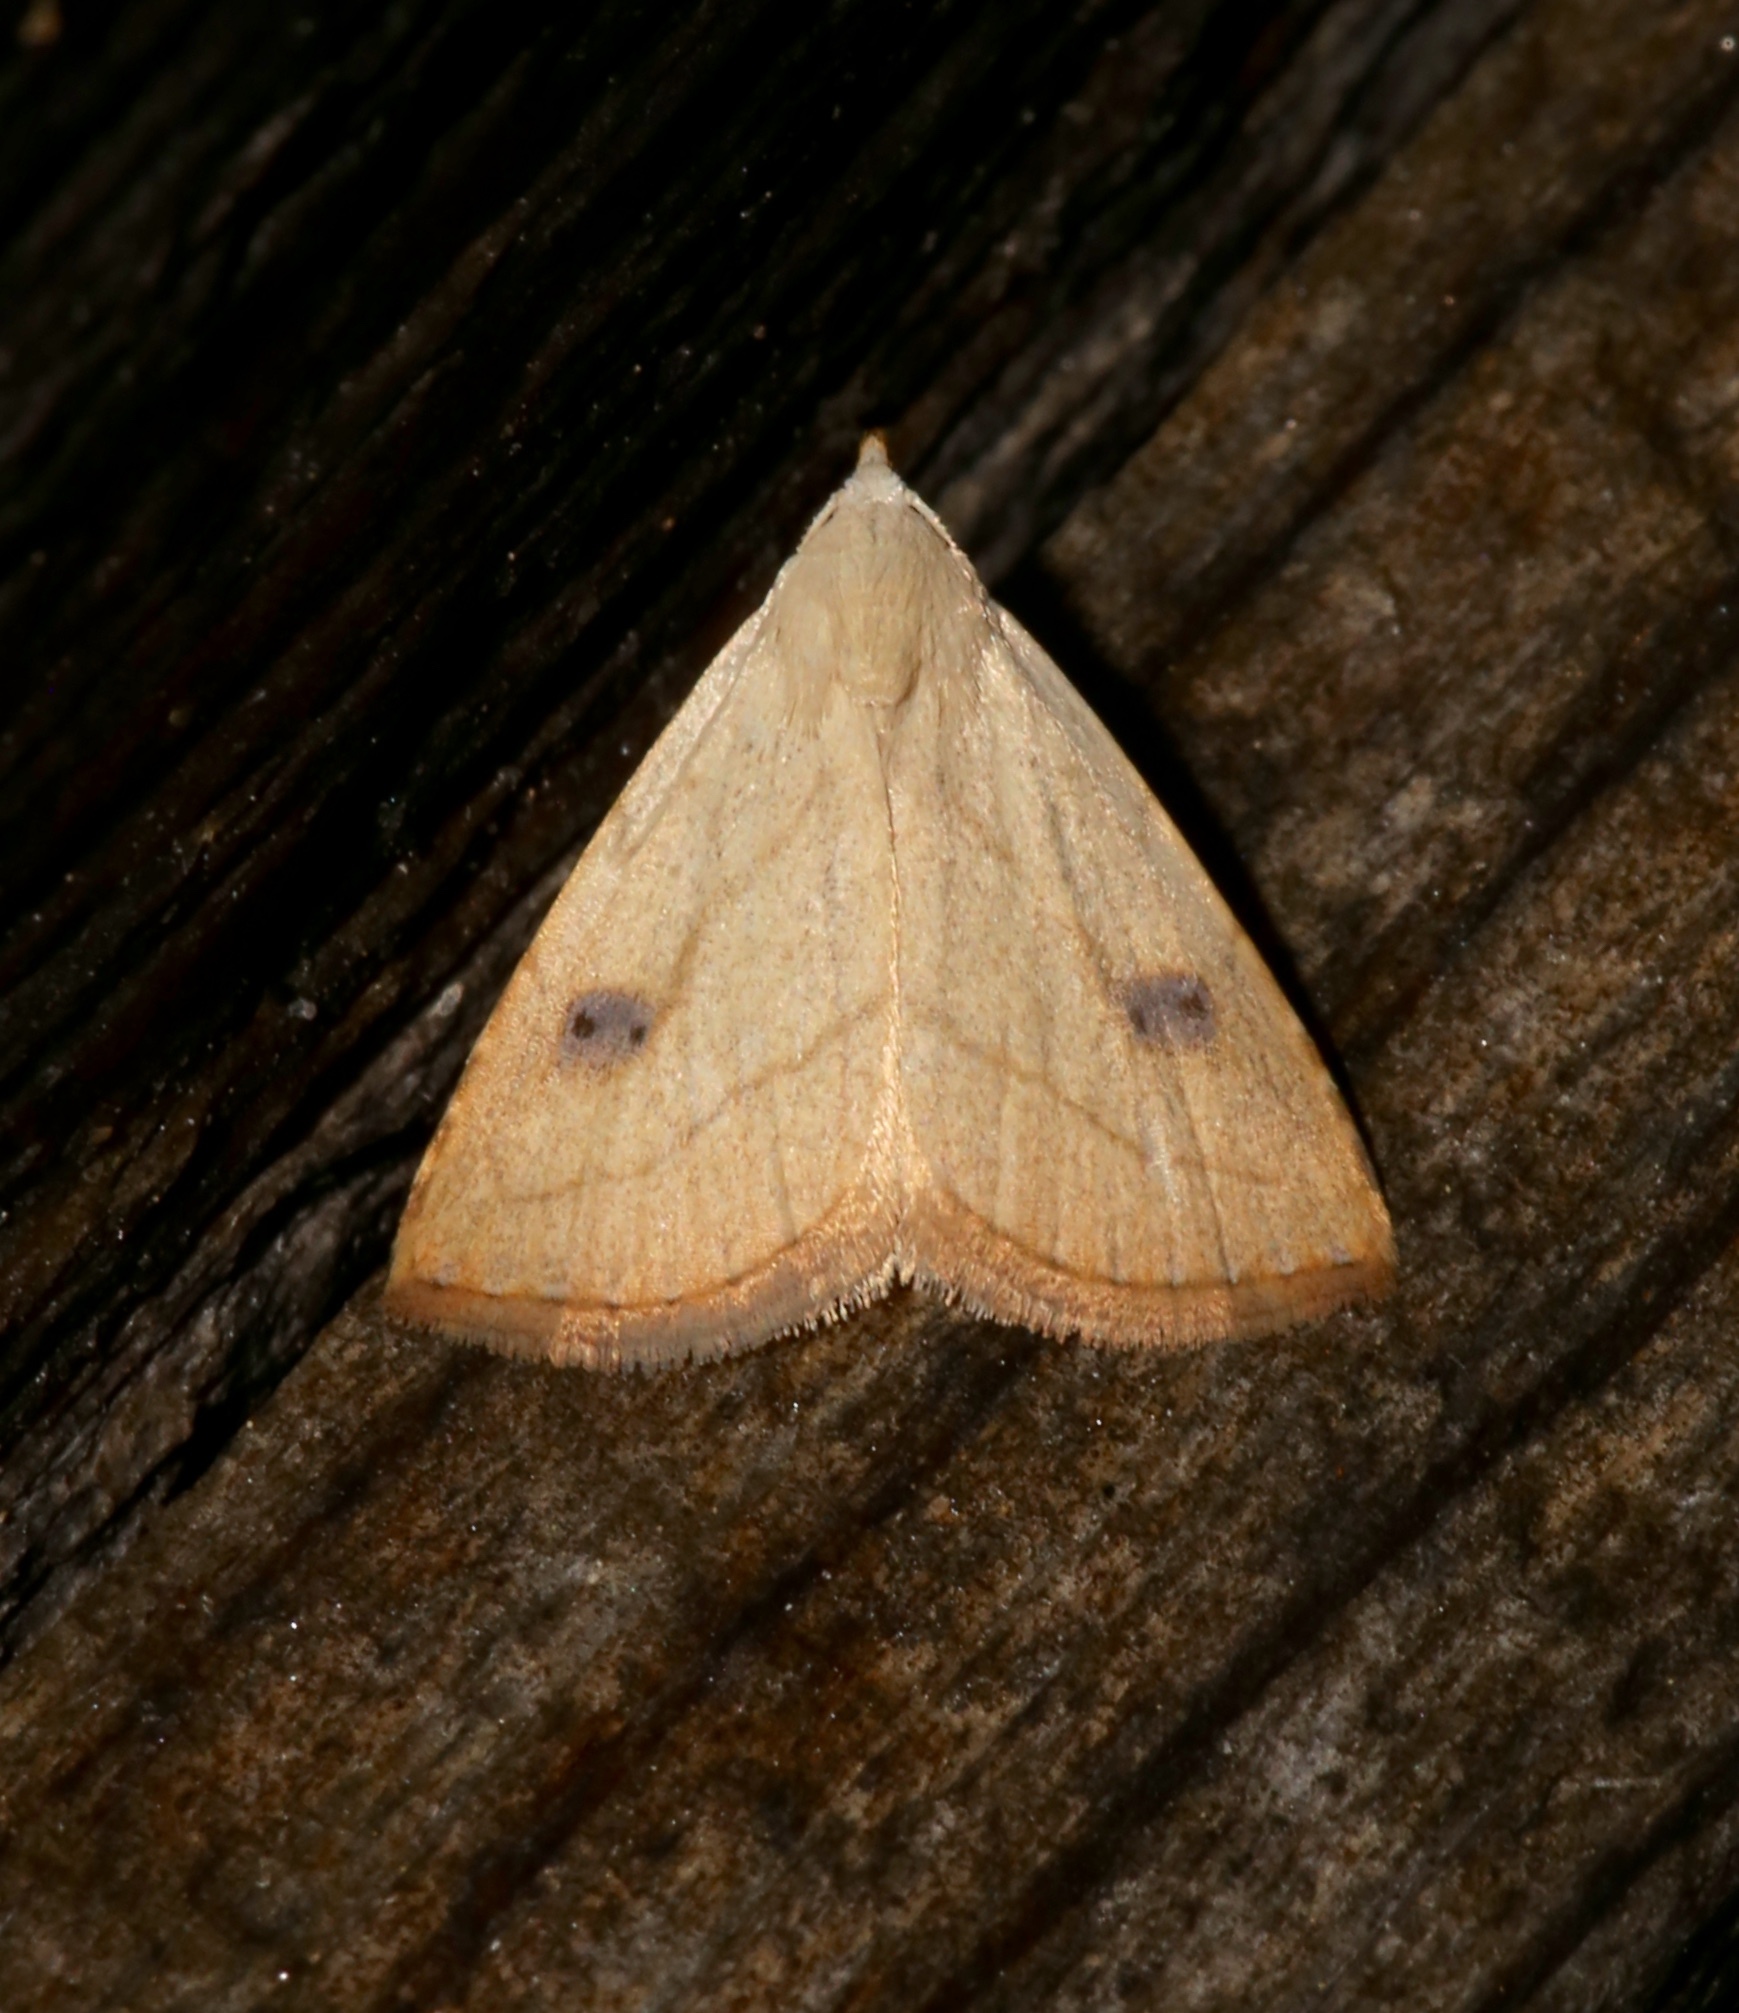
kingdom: Animalia
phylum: Arthropoda
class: Insecta
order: Lepidoptera
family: Erebidae
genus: Rivula
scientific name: Rivula propinqualis
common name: Spotted grass moth
